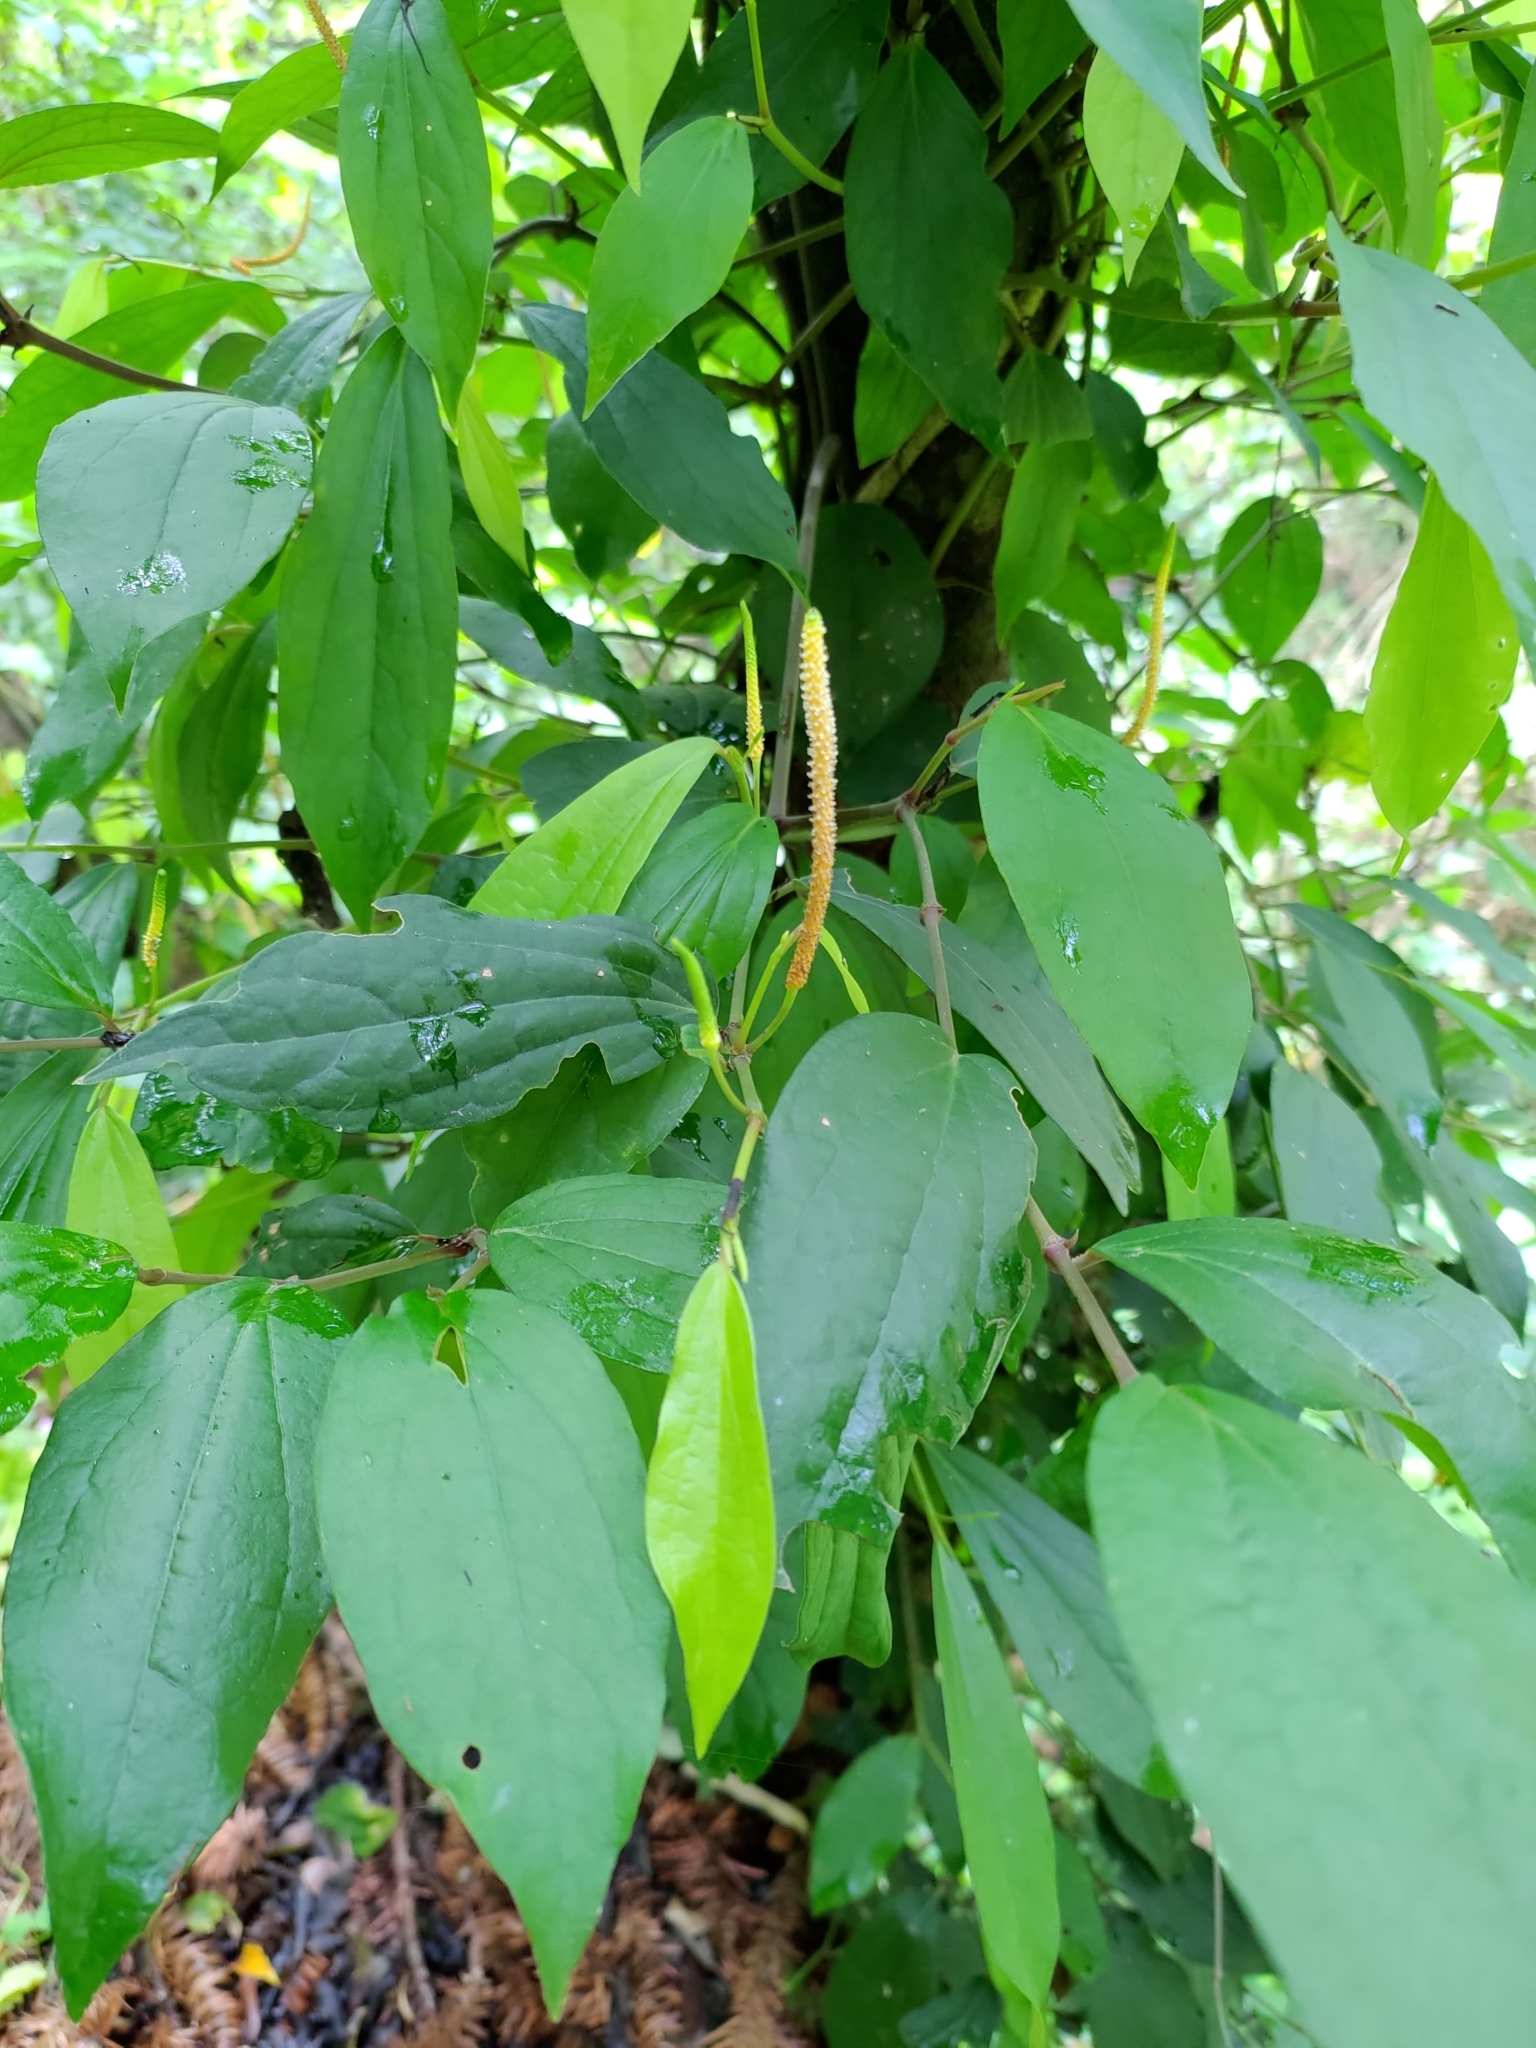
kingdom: Plantae
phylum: Tracheophyta
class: Magnoliopsida
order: Piperales
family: Piperaceae
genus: Piper
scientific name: Piper kadsura
